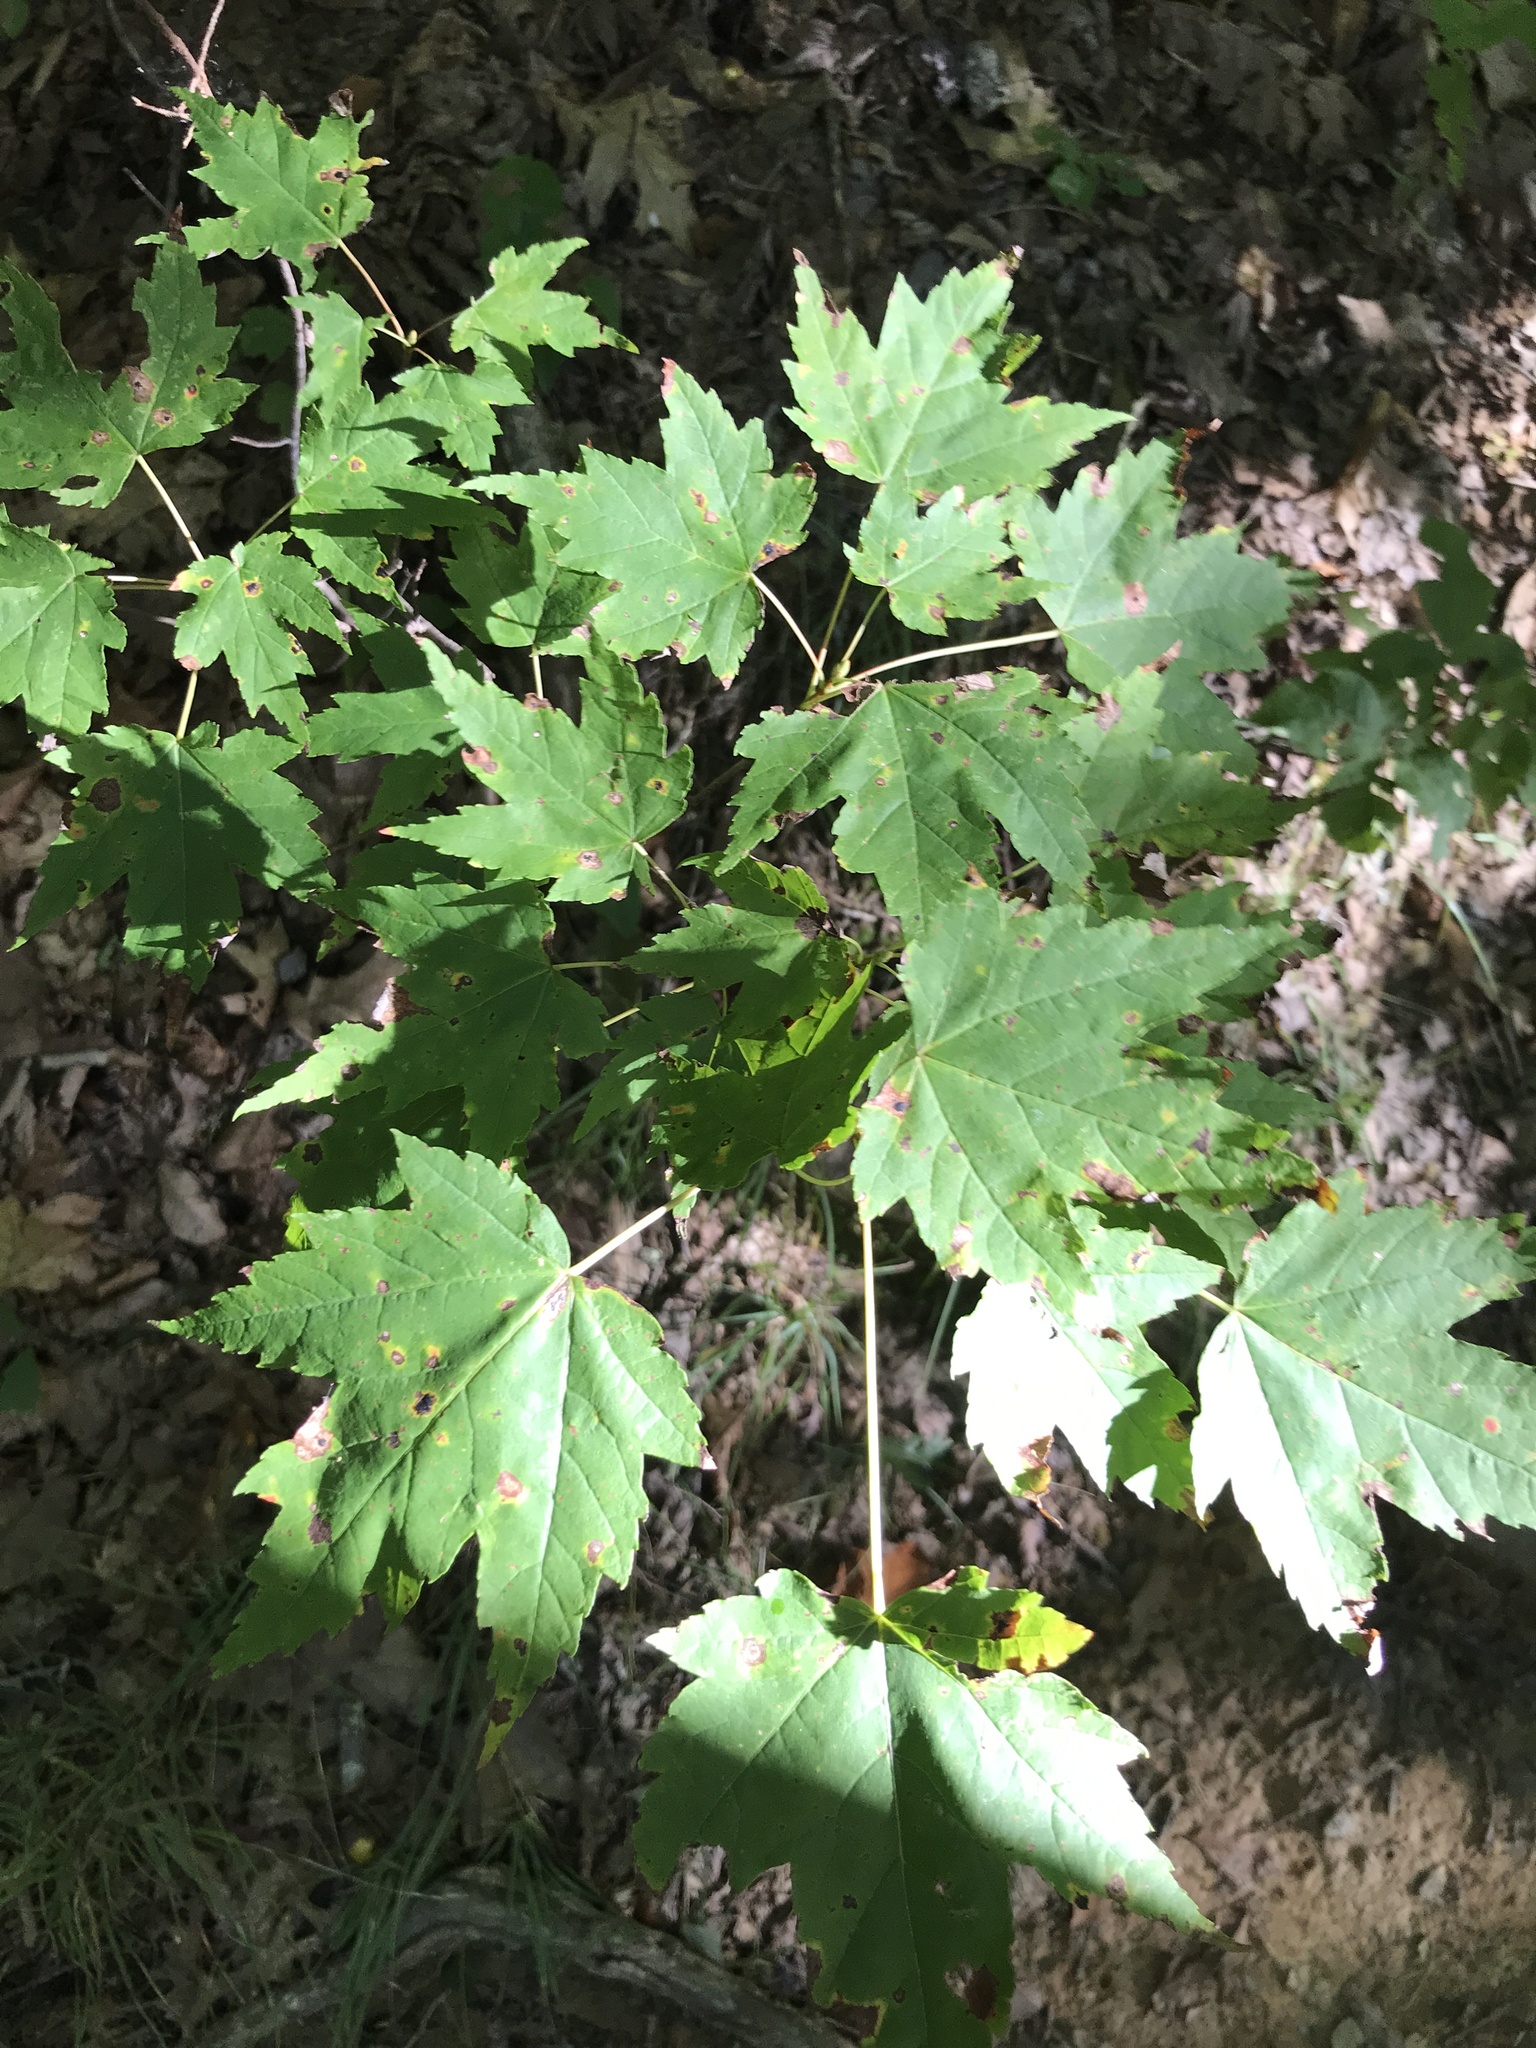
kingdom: Plantae
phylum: Tracheophyta
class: Magnoliopsida
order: Sapindales
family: Sapindaceae
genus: Acer
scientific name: Acer rubrum
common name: Red maple
